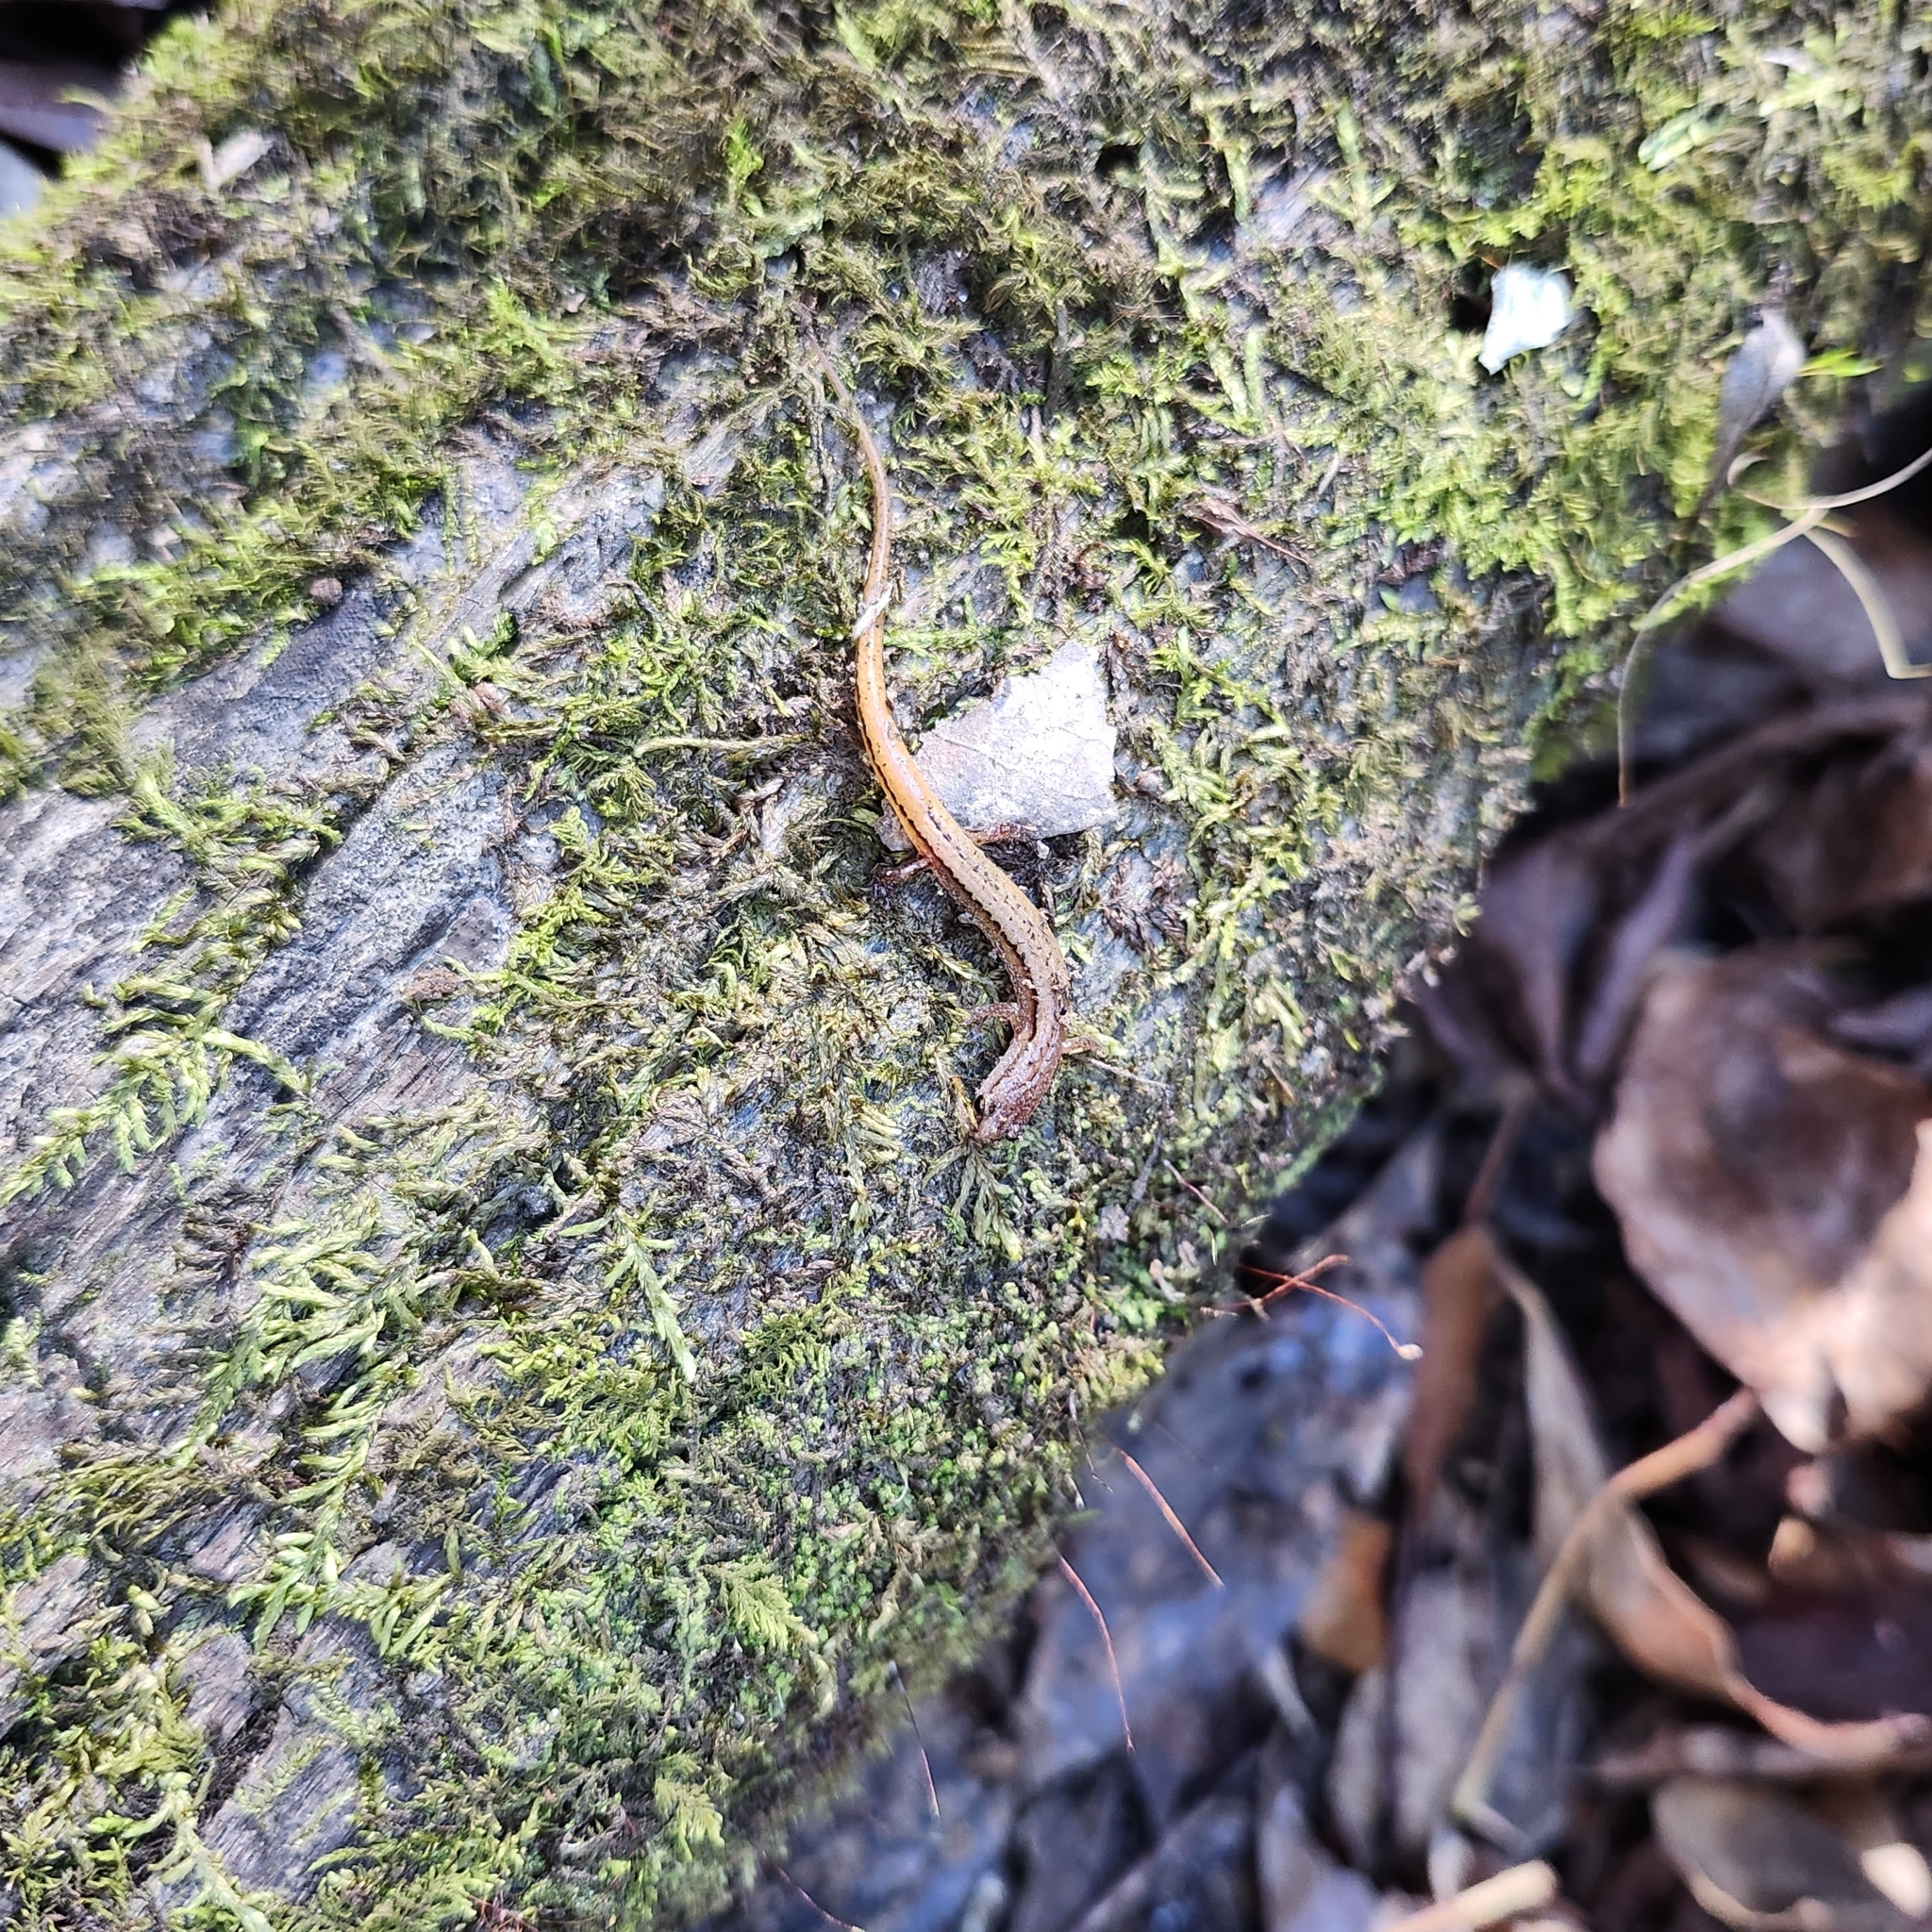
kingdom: Animalia
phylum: Chordata
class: Amphibia
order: Caudata
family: Plethodontidae
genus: Eurycea
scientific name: Eurycea hillisi
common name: Hillis's dwarf salamander
